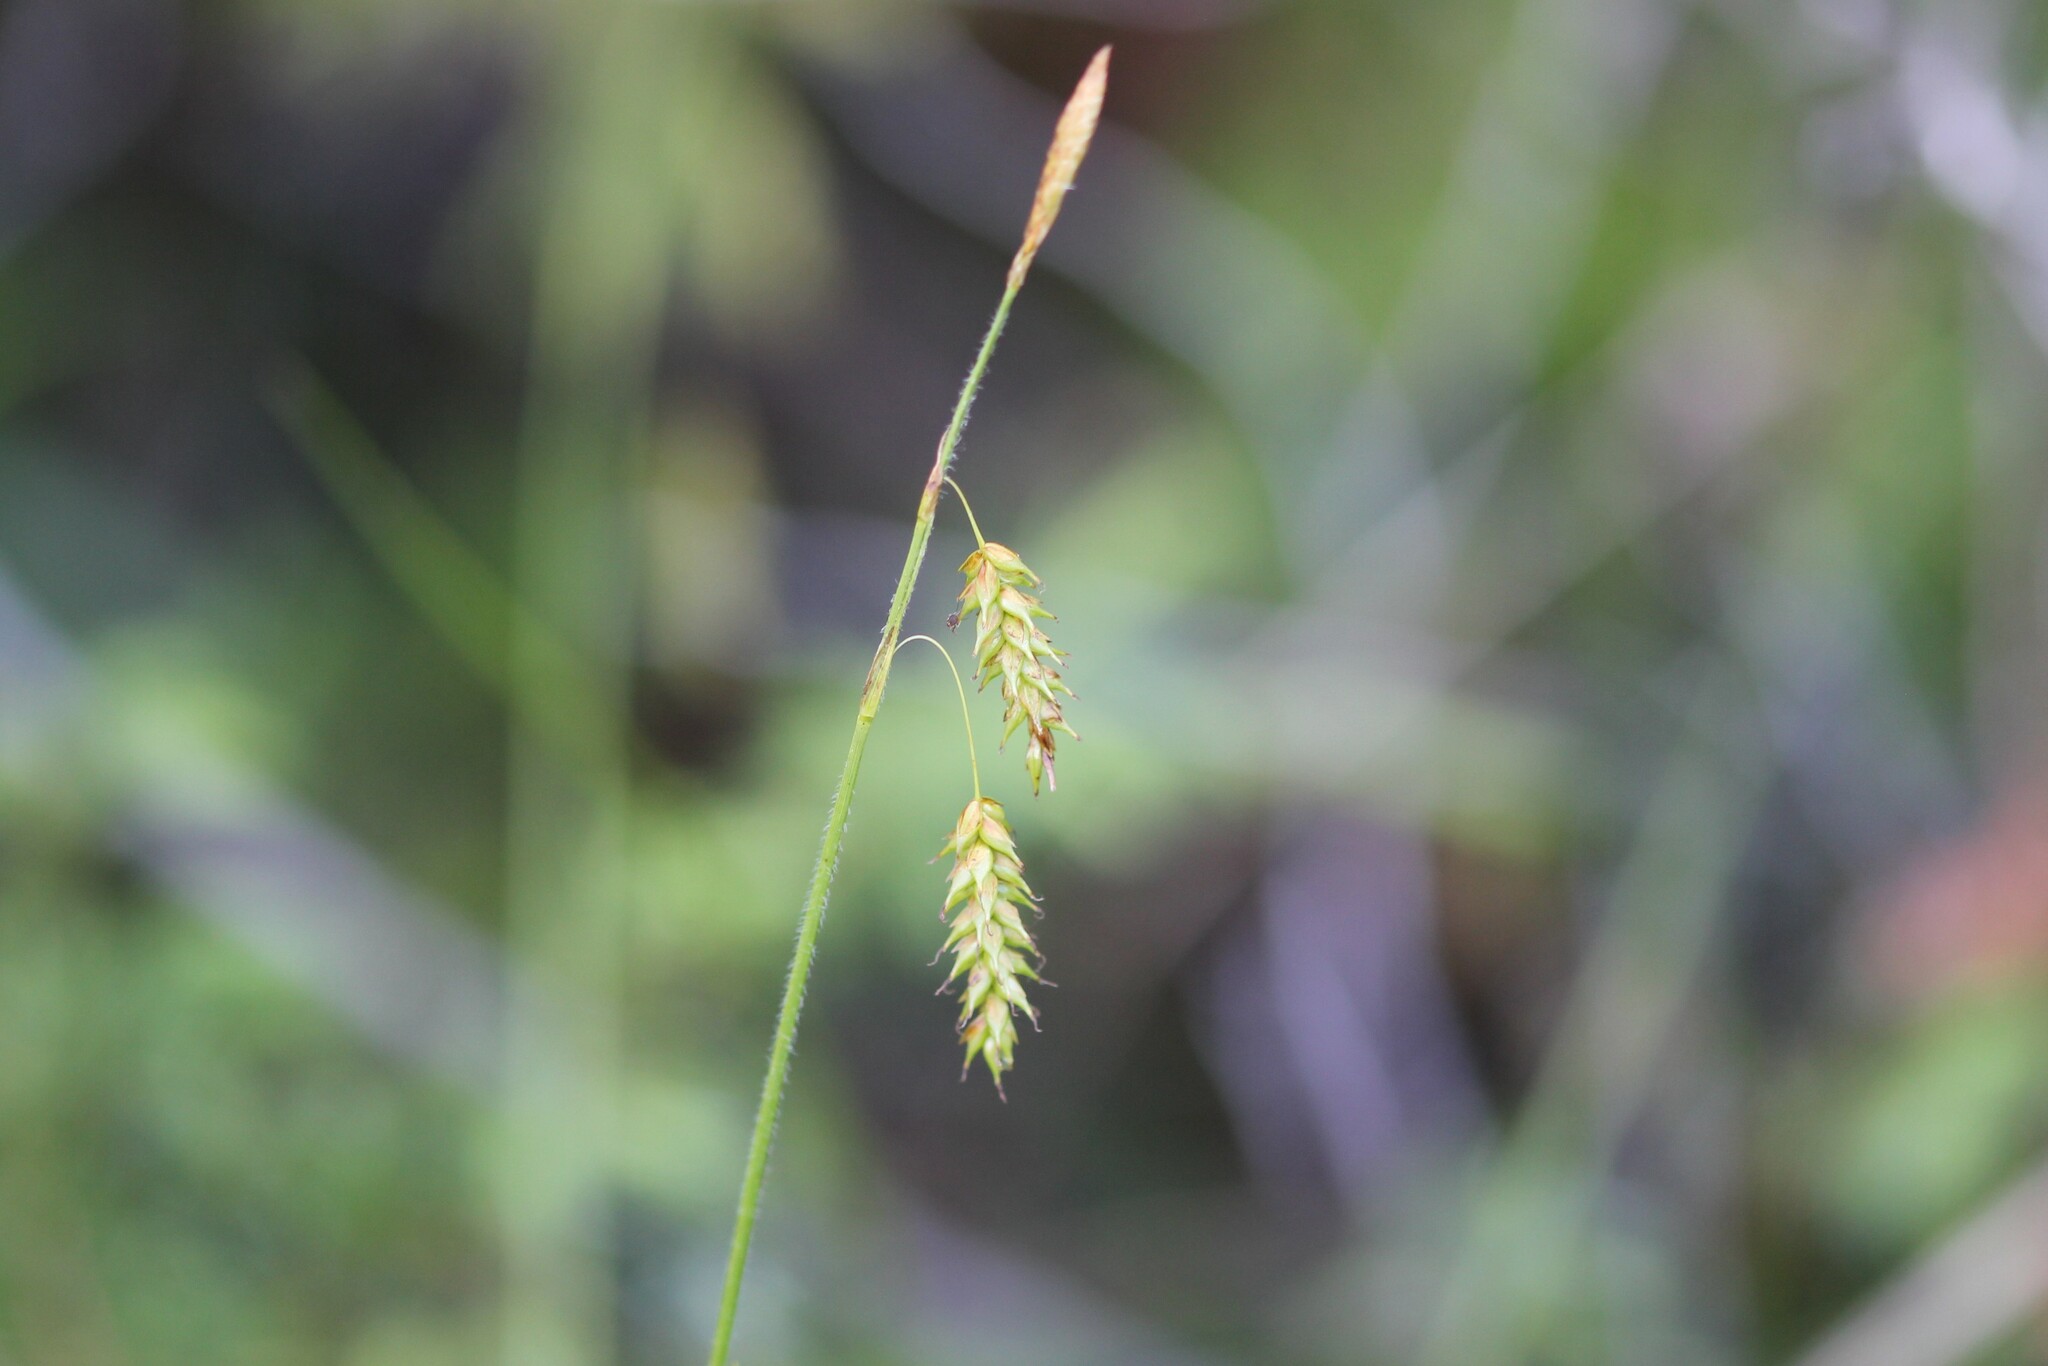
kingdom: Plantae
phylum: Tracheophyta
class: Liliopsida
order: Poales
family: Cyperaceae
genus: Carex
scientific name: Carex castanea
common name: Chestnut sedge
